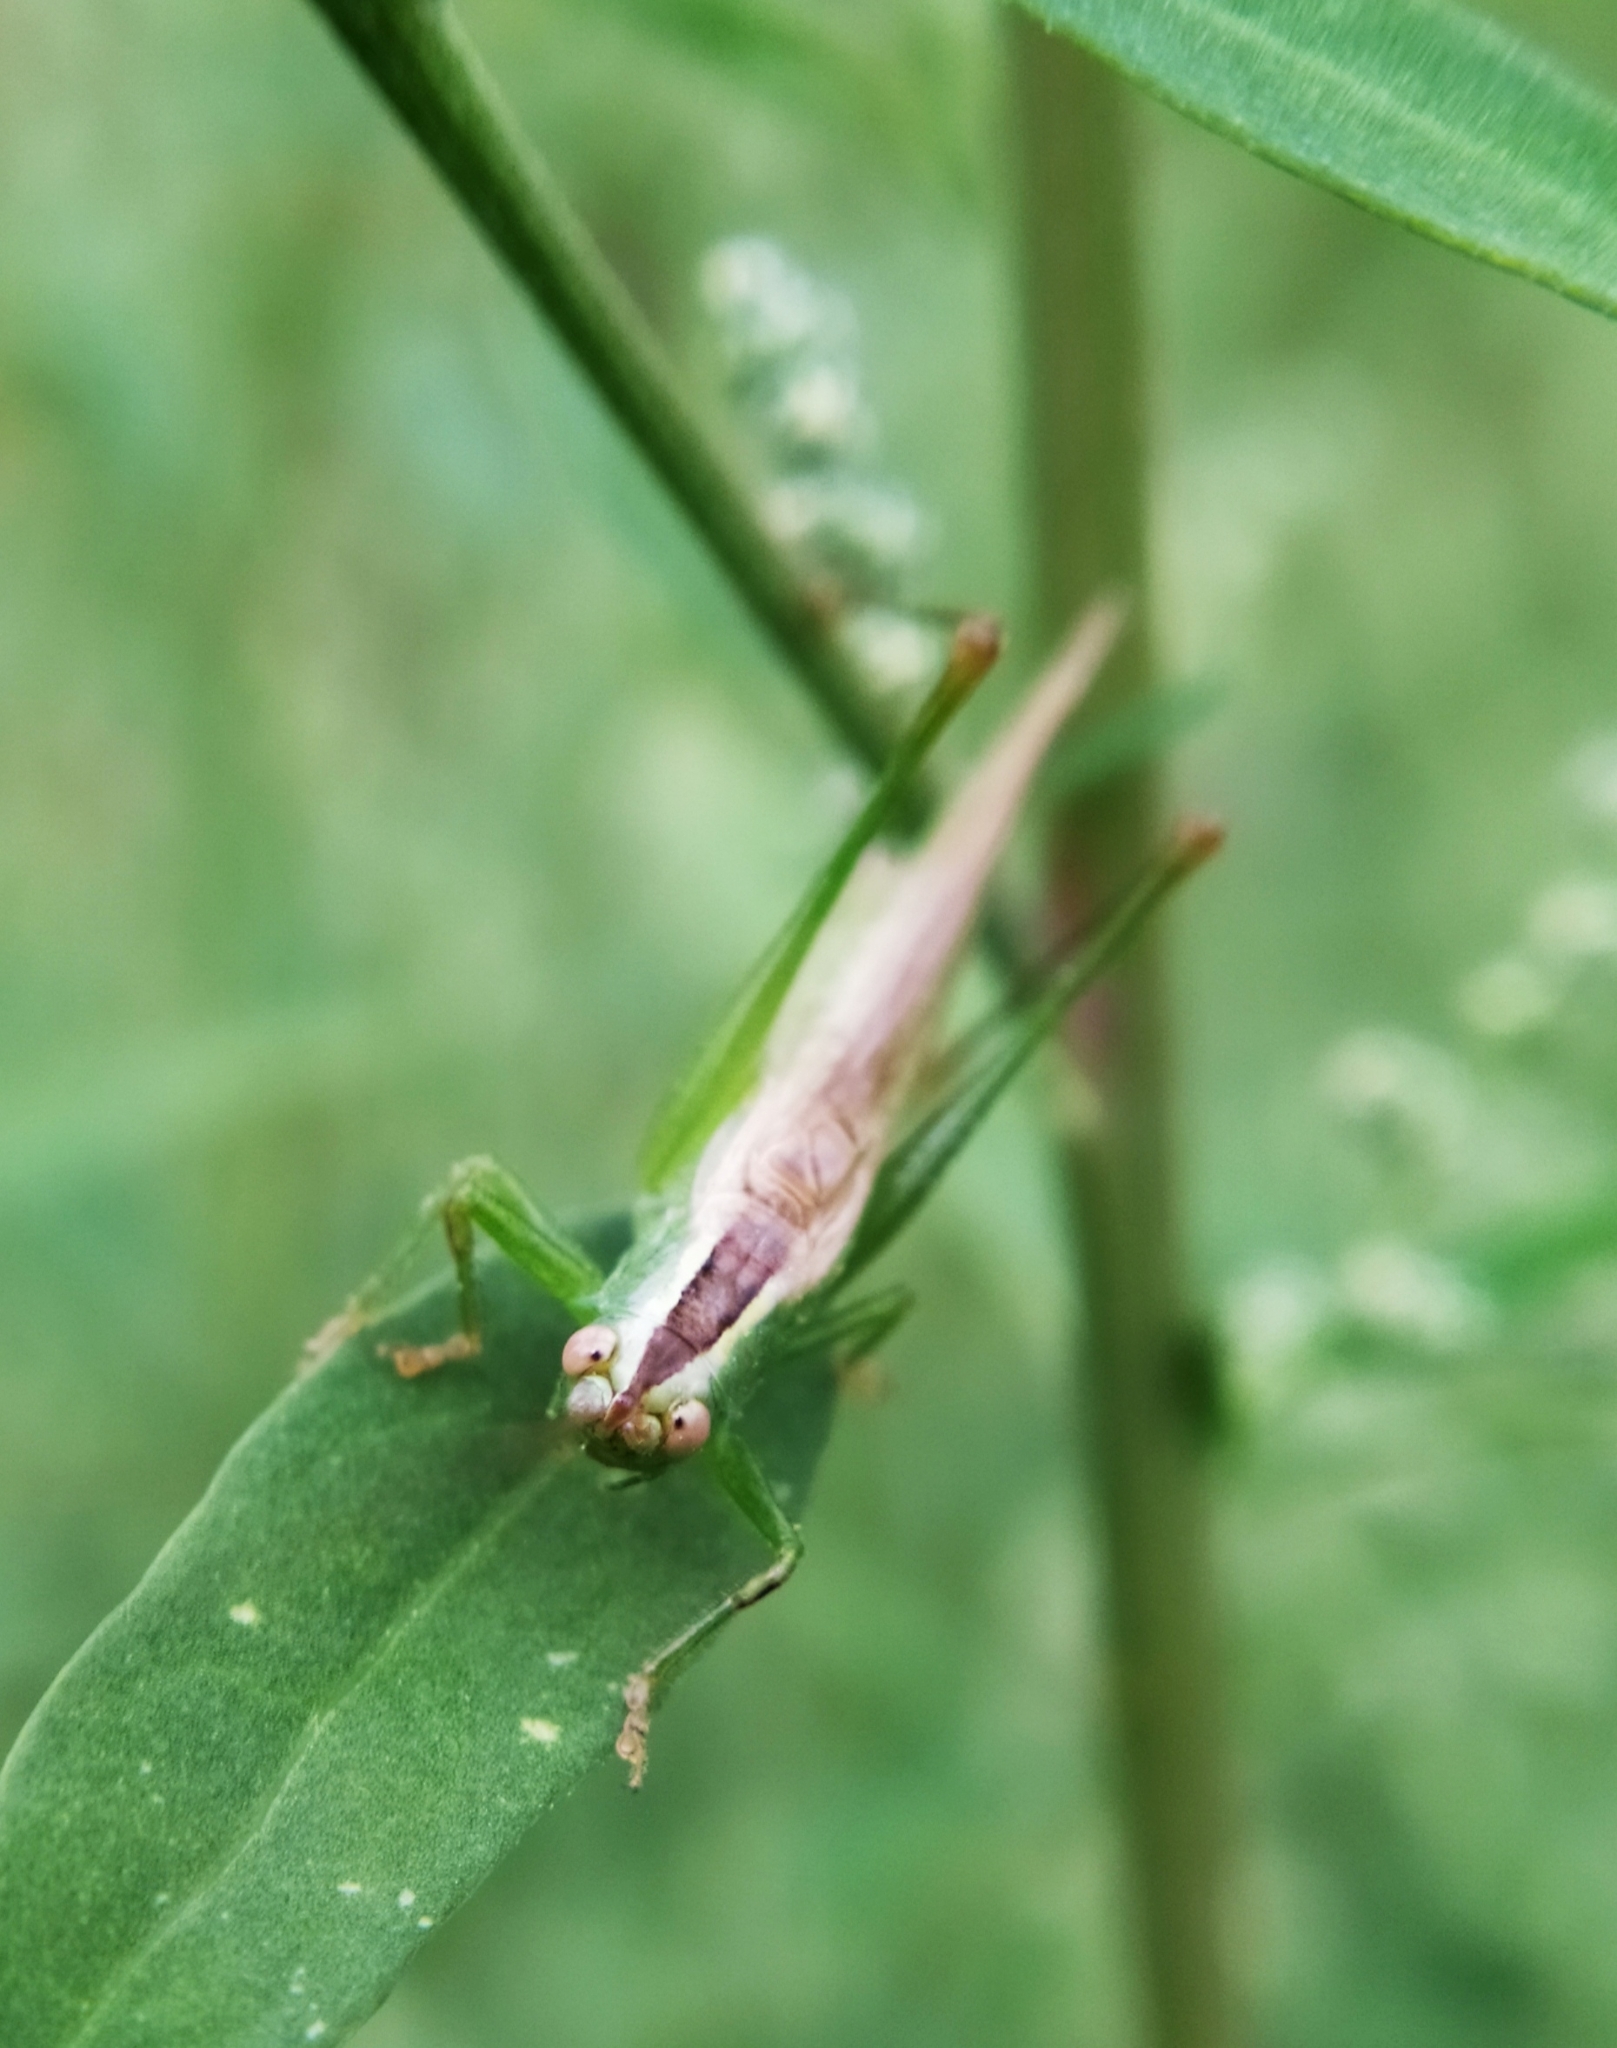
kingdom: Animalia
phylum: Arthropoda
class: Insecta
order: Orthoptera
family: Tettigoniidae
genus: Conocephalus
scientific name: Conocephalus fuscus
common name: Long-winged conehead
